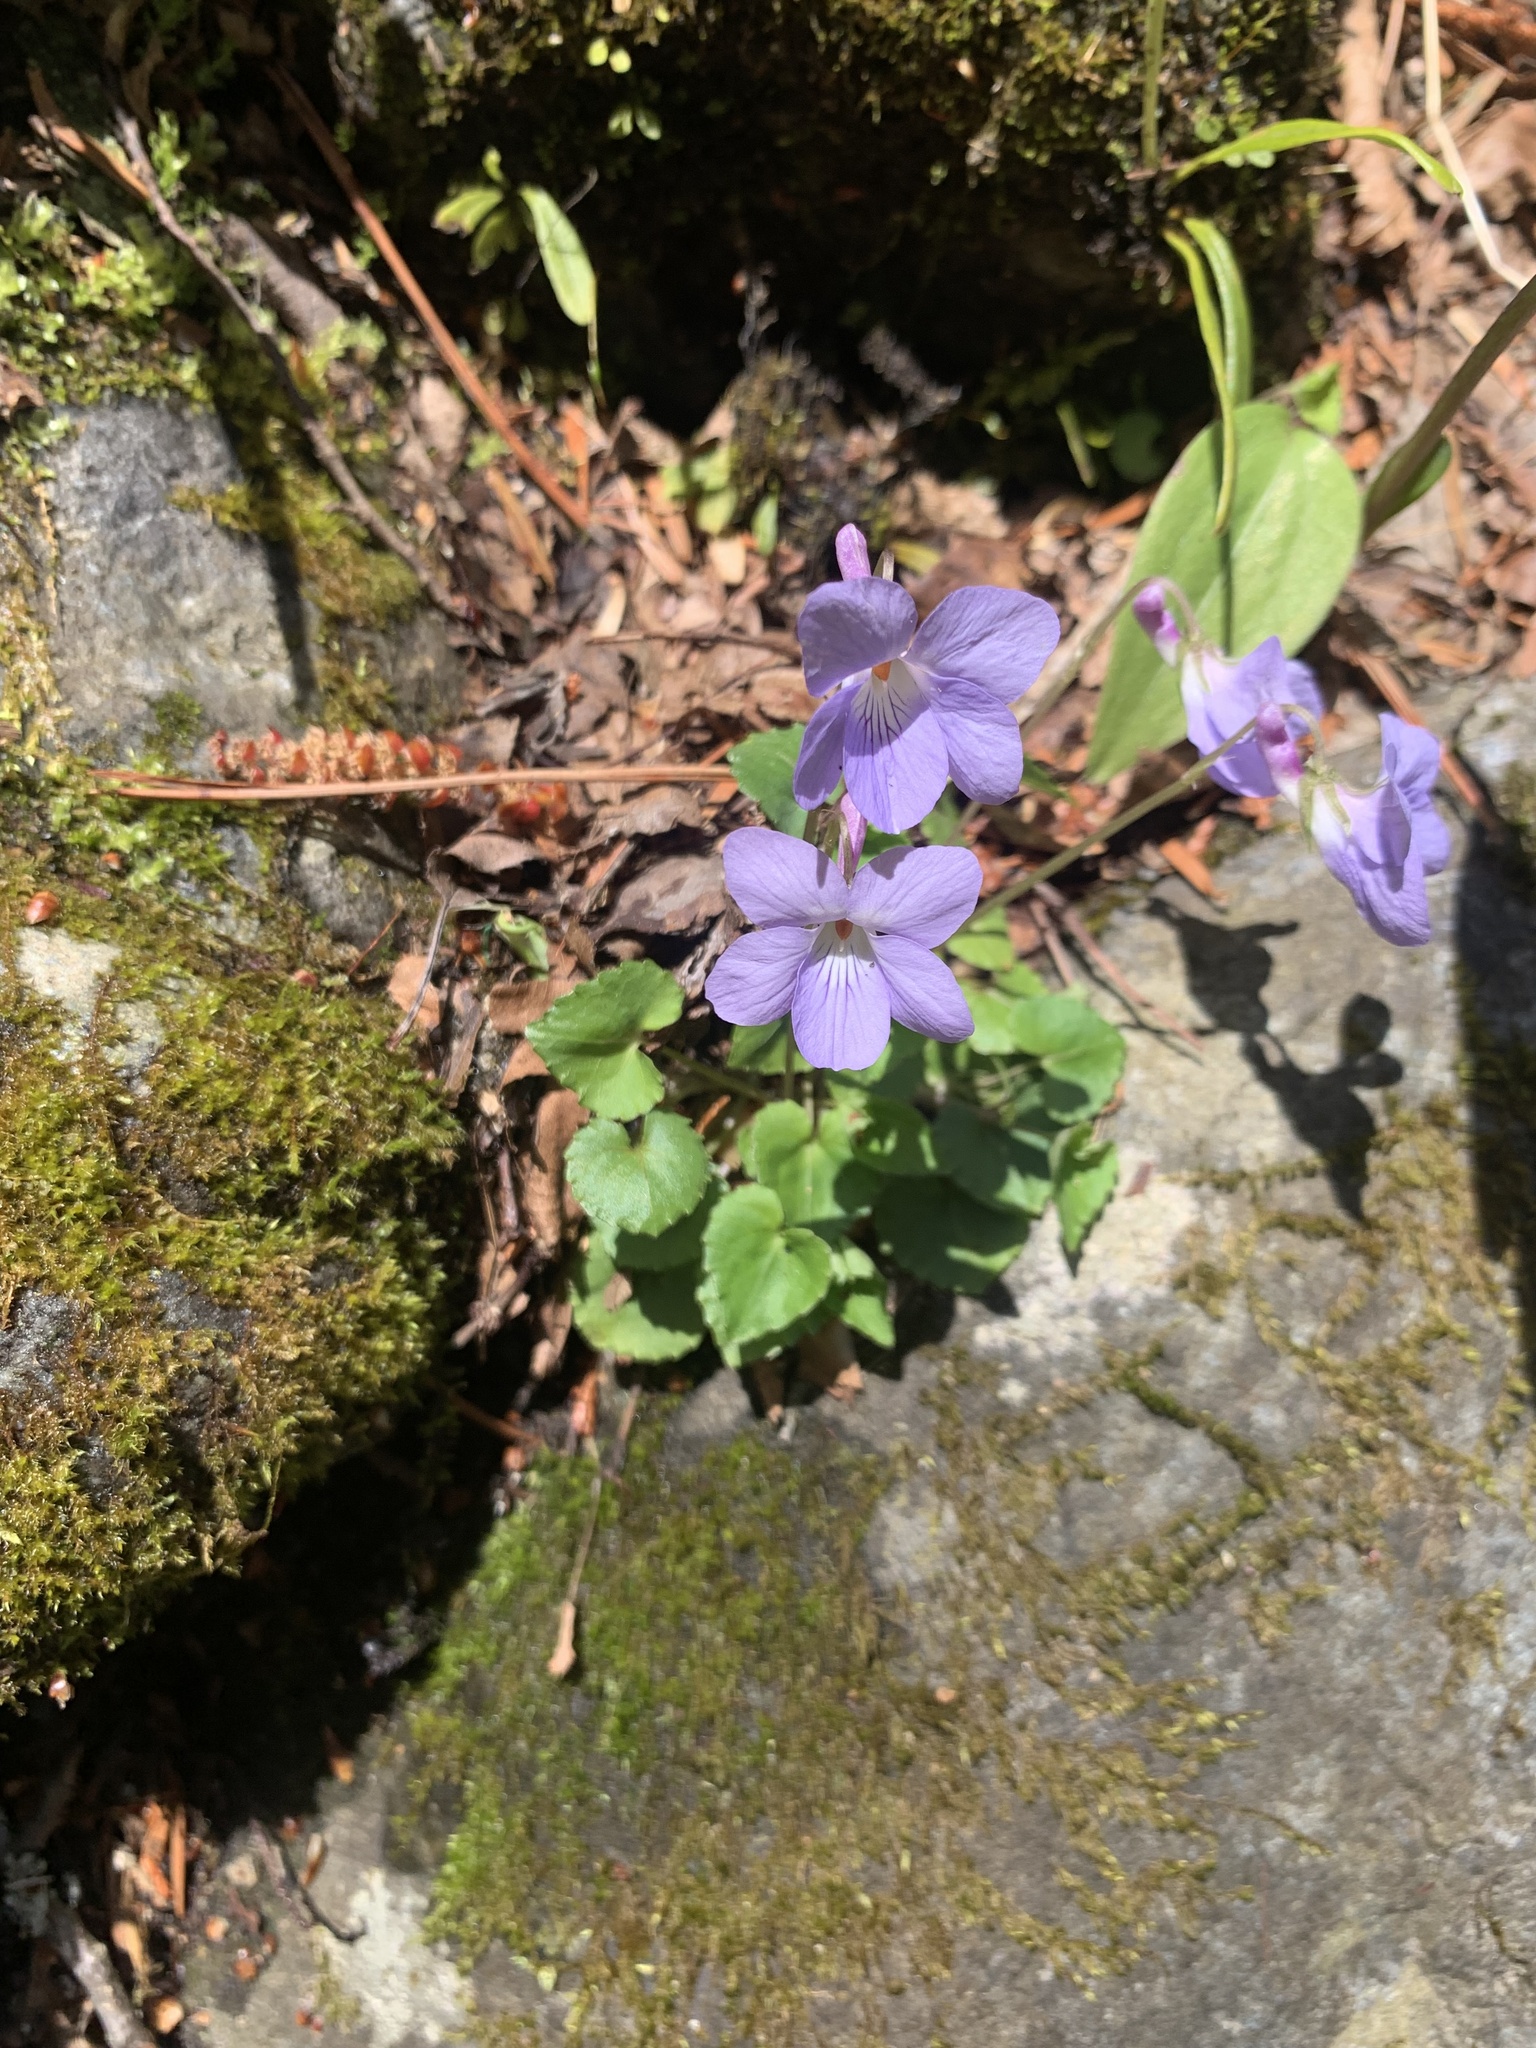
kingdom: Plantae
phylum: Tracheophyta
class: Magnoliopsida
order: Malpighiales
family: Violaceae
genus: Viola
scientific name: Viola grypoceras
